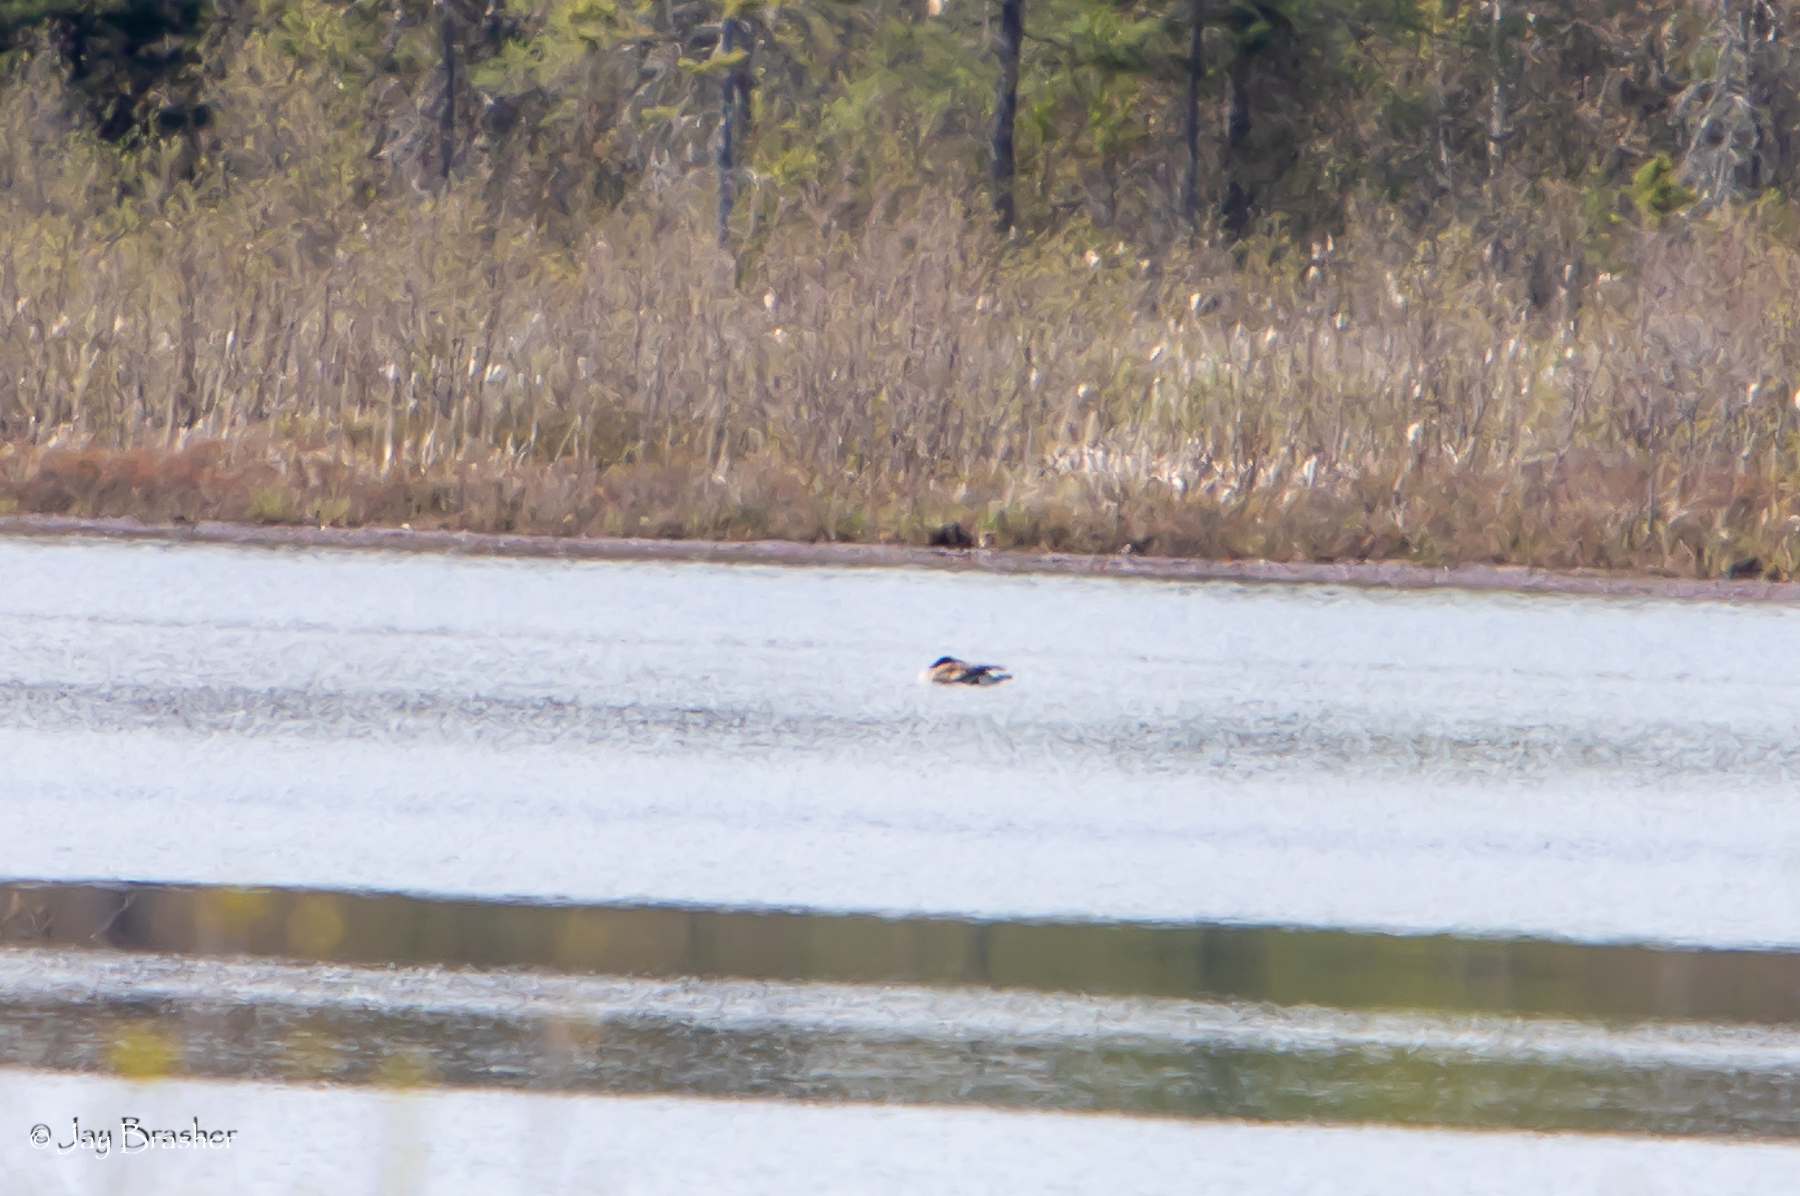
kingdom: Animalia
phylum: Chordata
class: Aves
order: Anseriformes
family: Anatidae
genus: Branta
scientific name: Branta canadensis
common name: Canada goose
